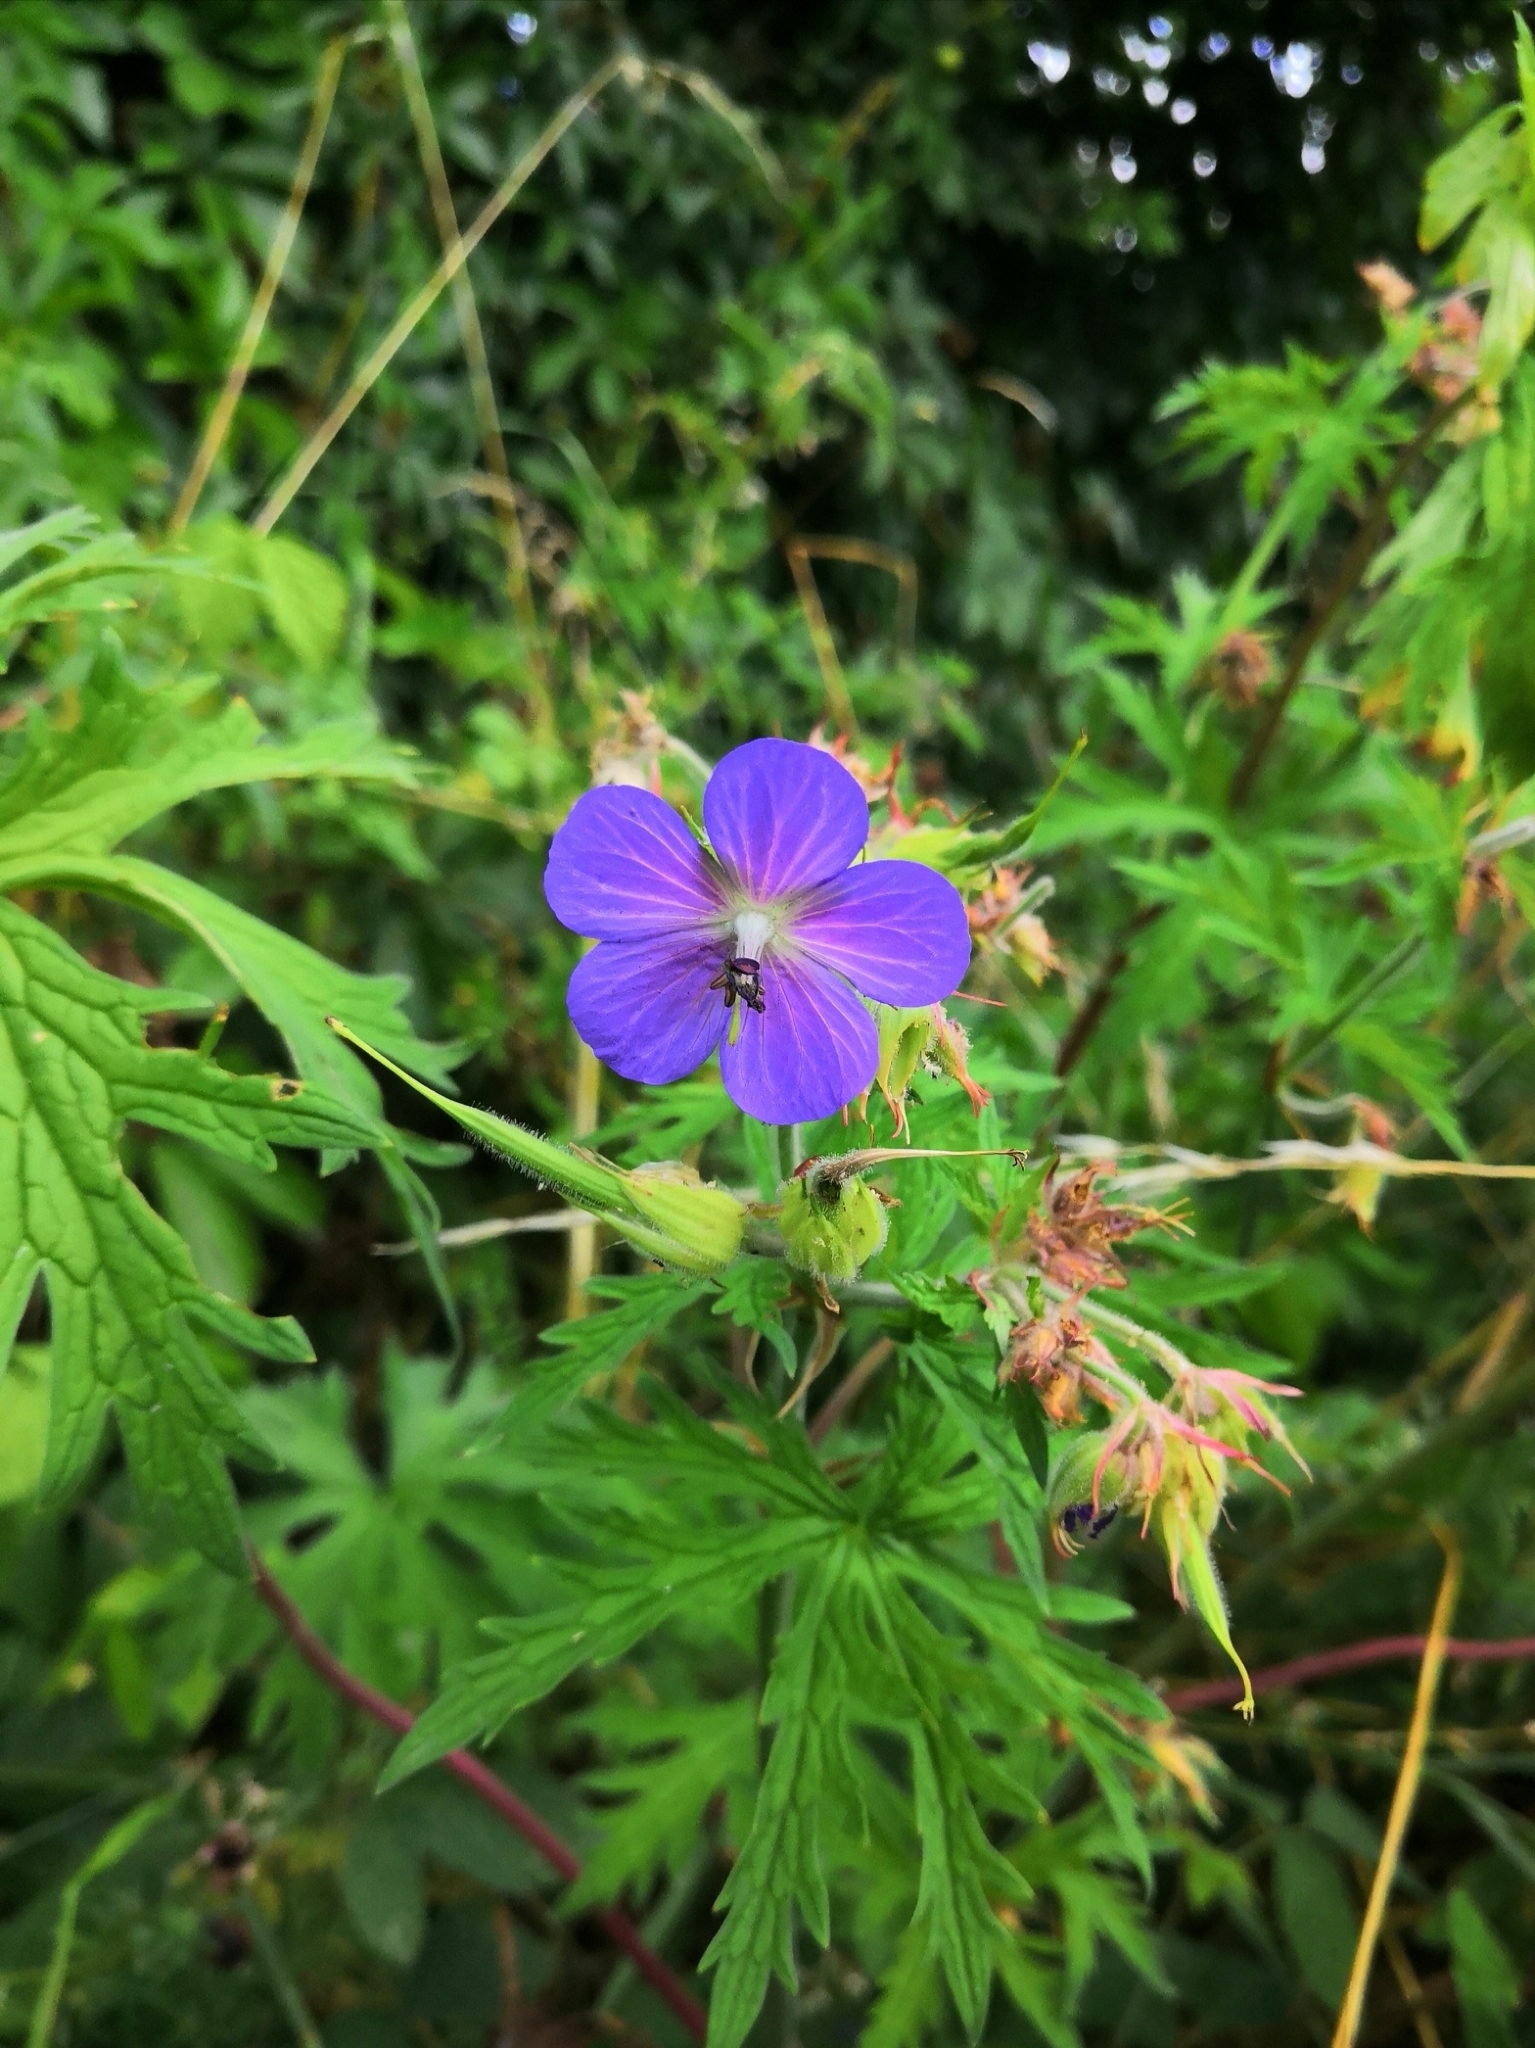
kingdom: Plantae
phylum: Tracheophyta
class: Magnoliopsida
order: Geraniales
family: Geraniaceae
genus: Geranium
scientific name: Geranium pratense
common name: Meadow crane's-bill
